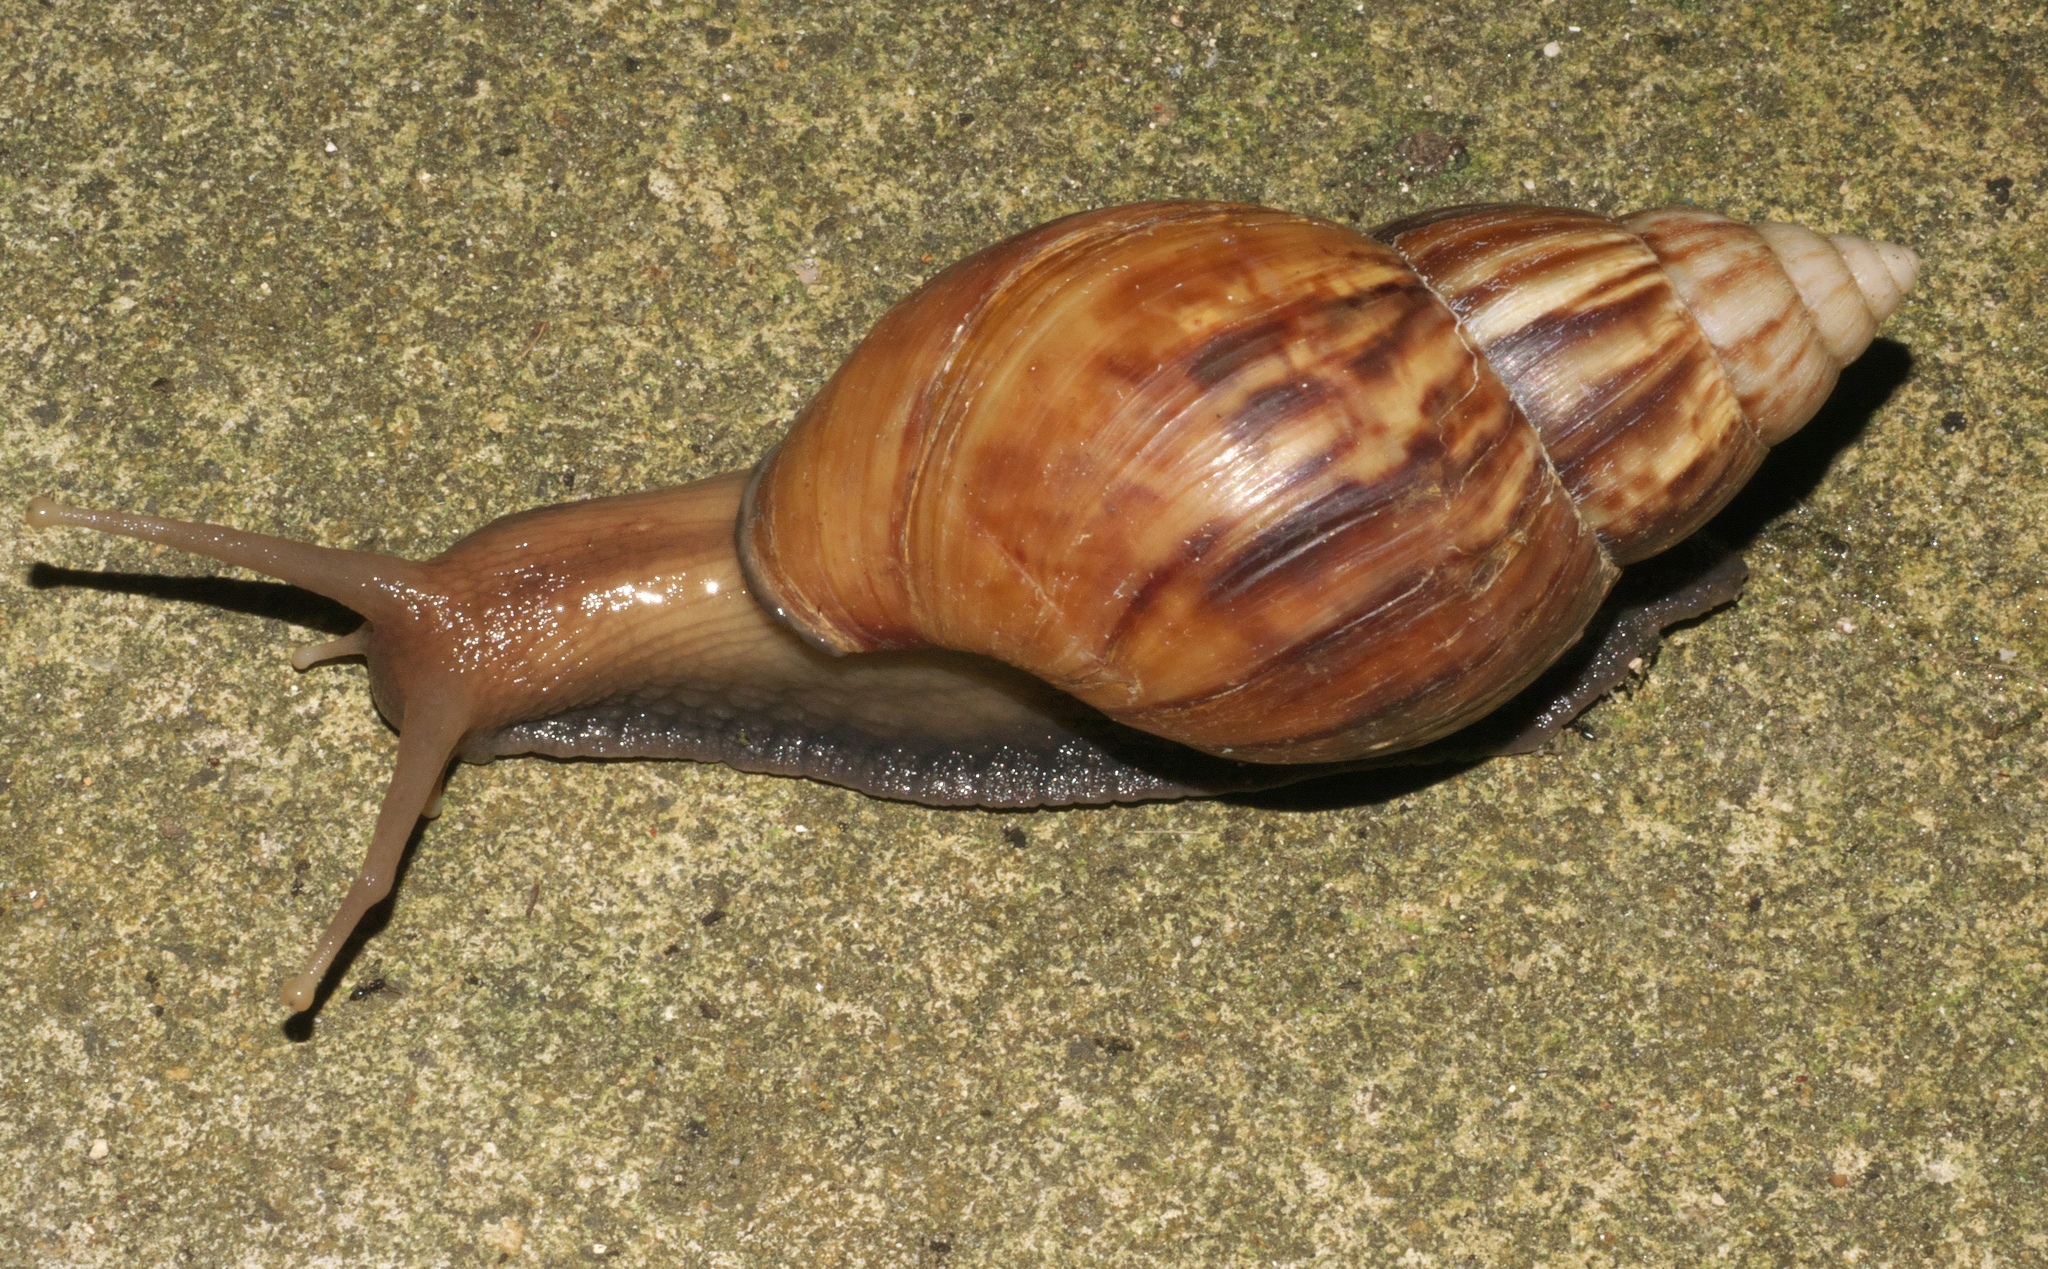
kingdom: Animalia
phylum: Mollusca
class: Gastropoda
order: Stylommatophora
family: Achatinidae
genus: Lissachatina
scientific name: Lissachatina fulica
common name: Giant african snail
